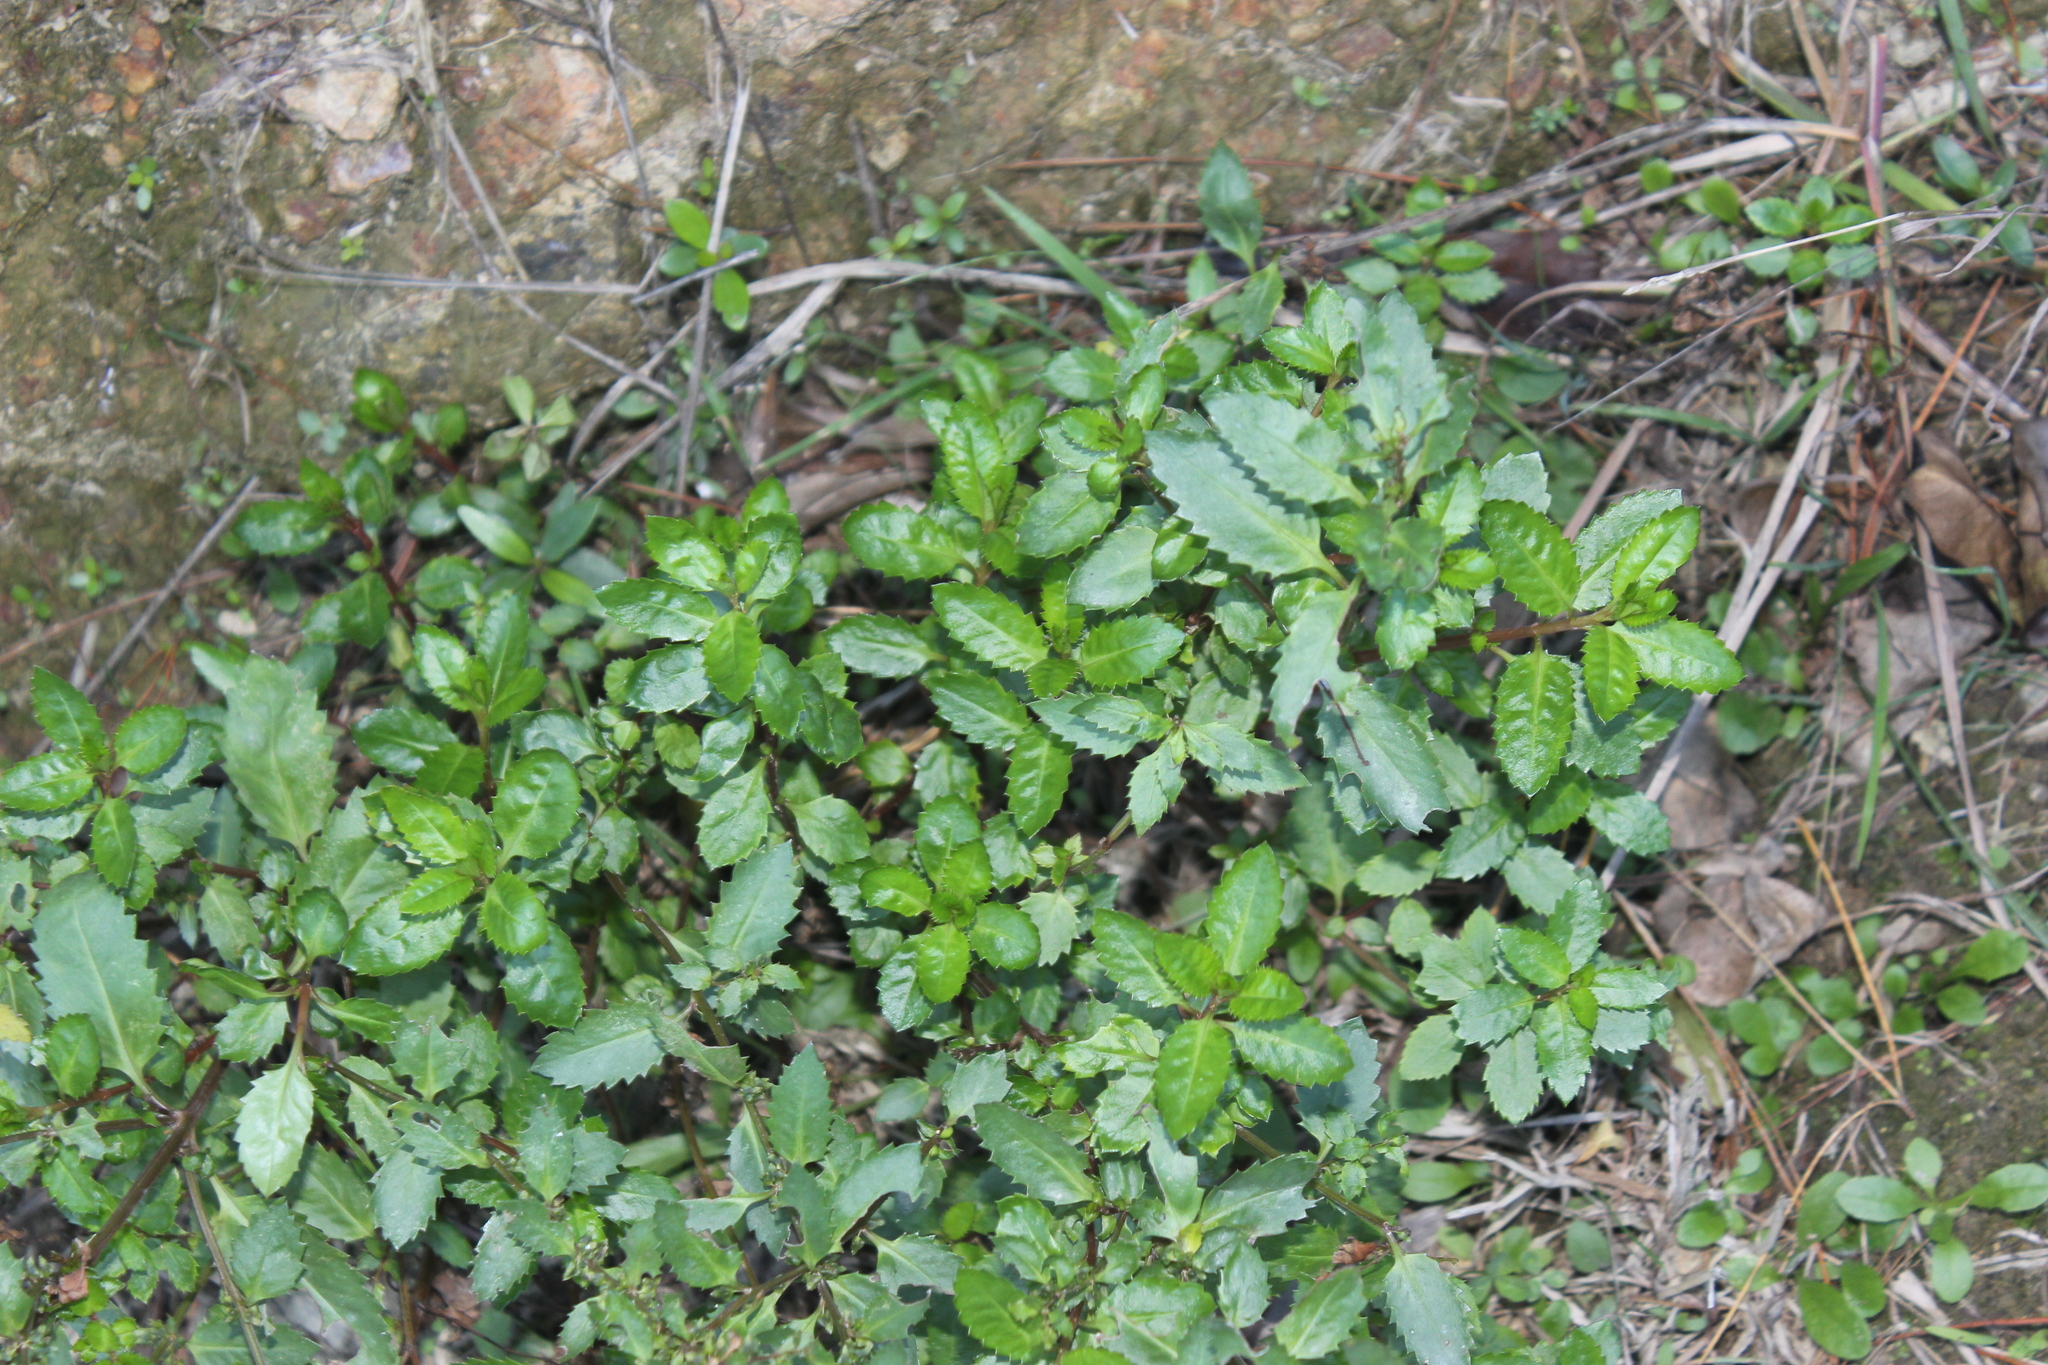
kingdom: Plantae
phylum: Tracheophyta
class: Magnoliopsida
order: Saxifragales
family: Haloragaceae
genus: Haloragis
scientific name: Haloragis erecta
